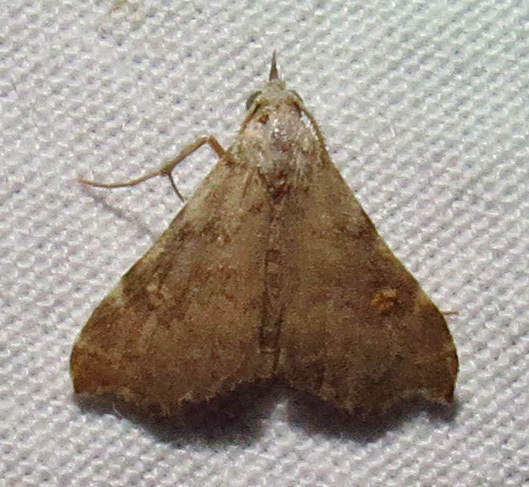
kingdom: Animalia
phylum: Arthropoda
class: Insecta
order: Lepidoptera
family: Erebidae
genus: Redectis
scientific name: Redectis pygmaea
